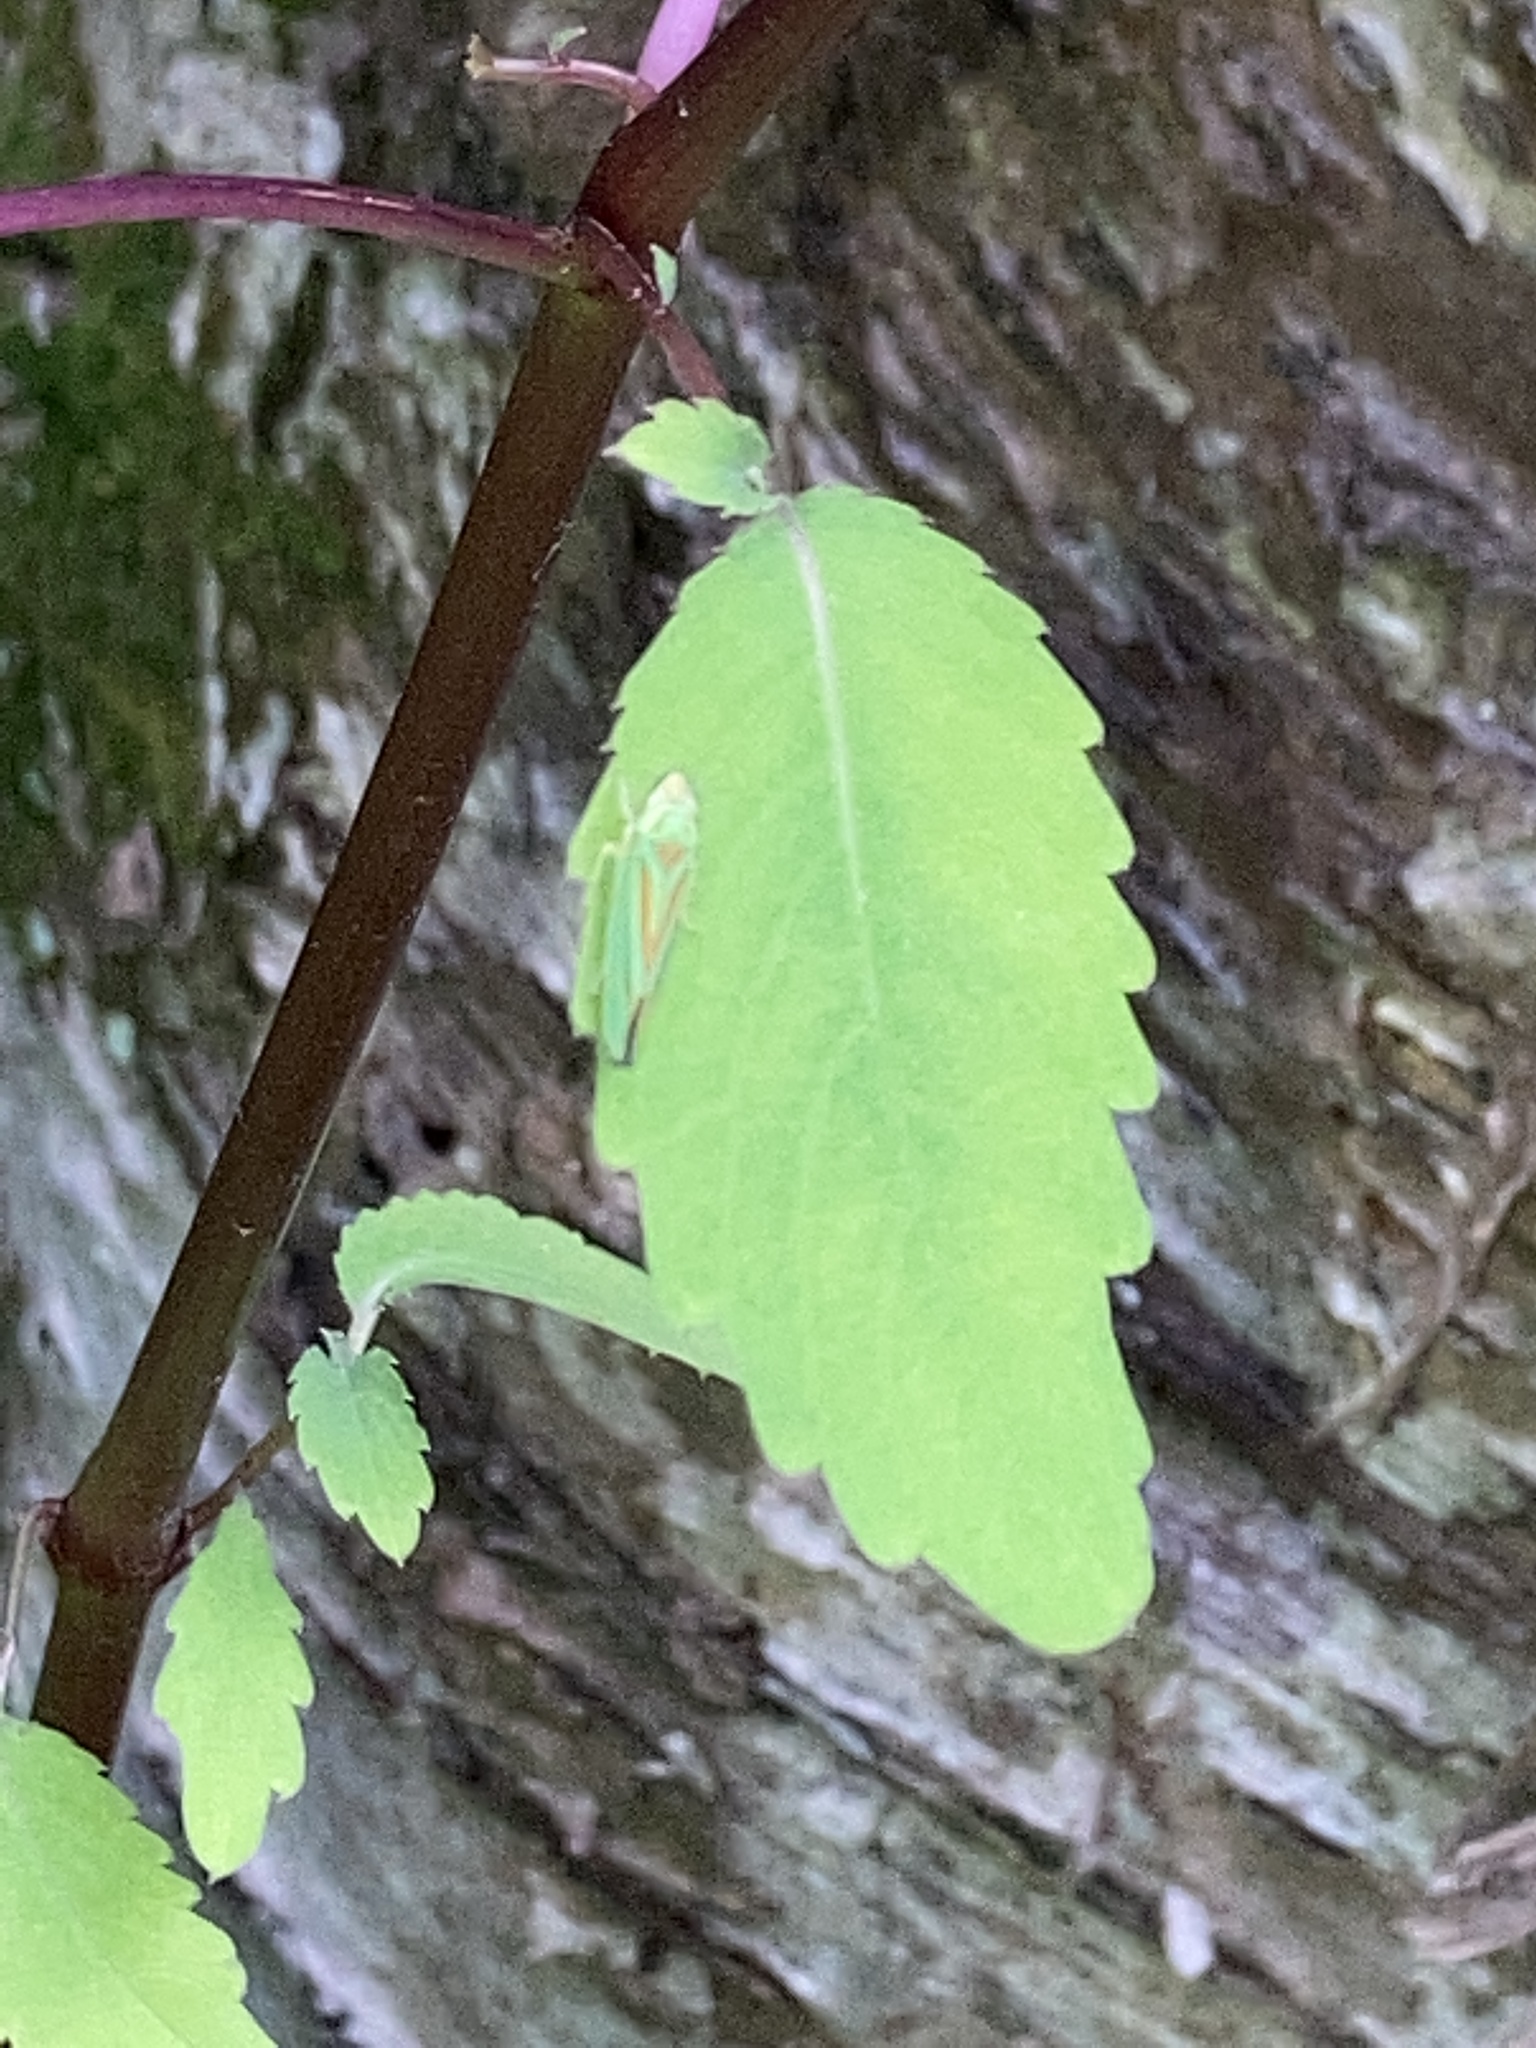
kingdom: Animalia
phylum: Arthropoda
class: Insecta
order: Hemiptera
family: Cicadellidae
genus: Graphocephala
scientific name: Graphocephala fennahi
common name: Rhododendron leafhopper
